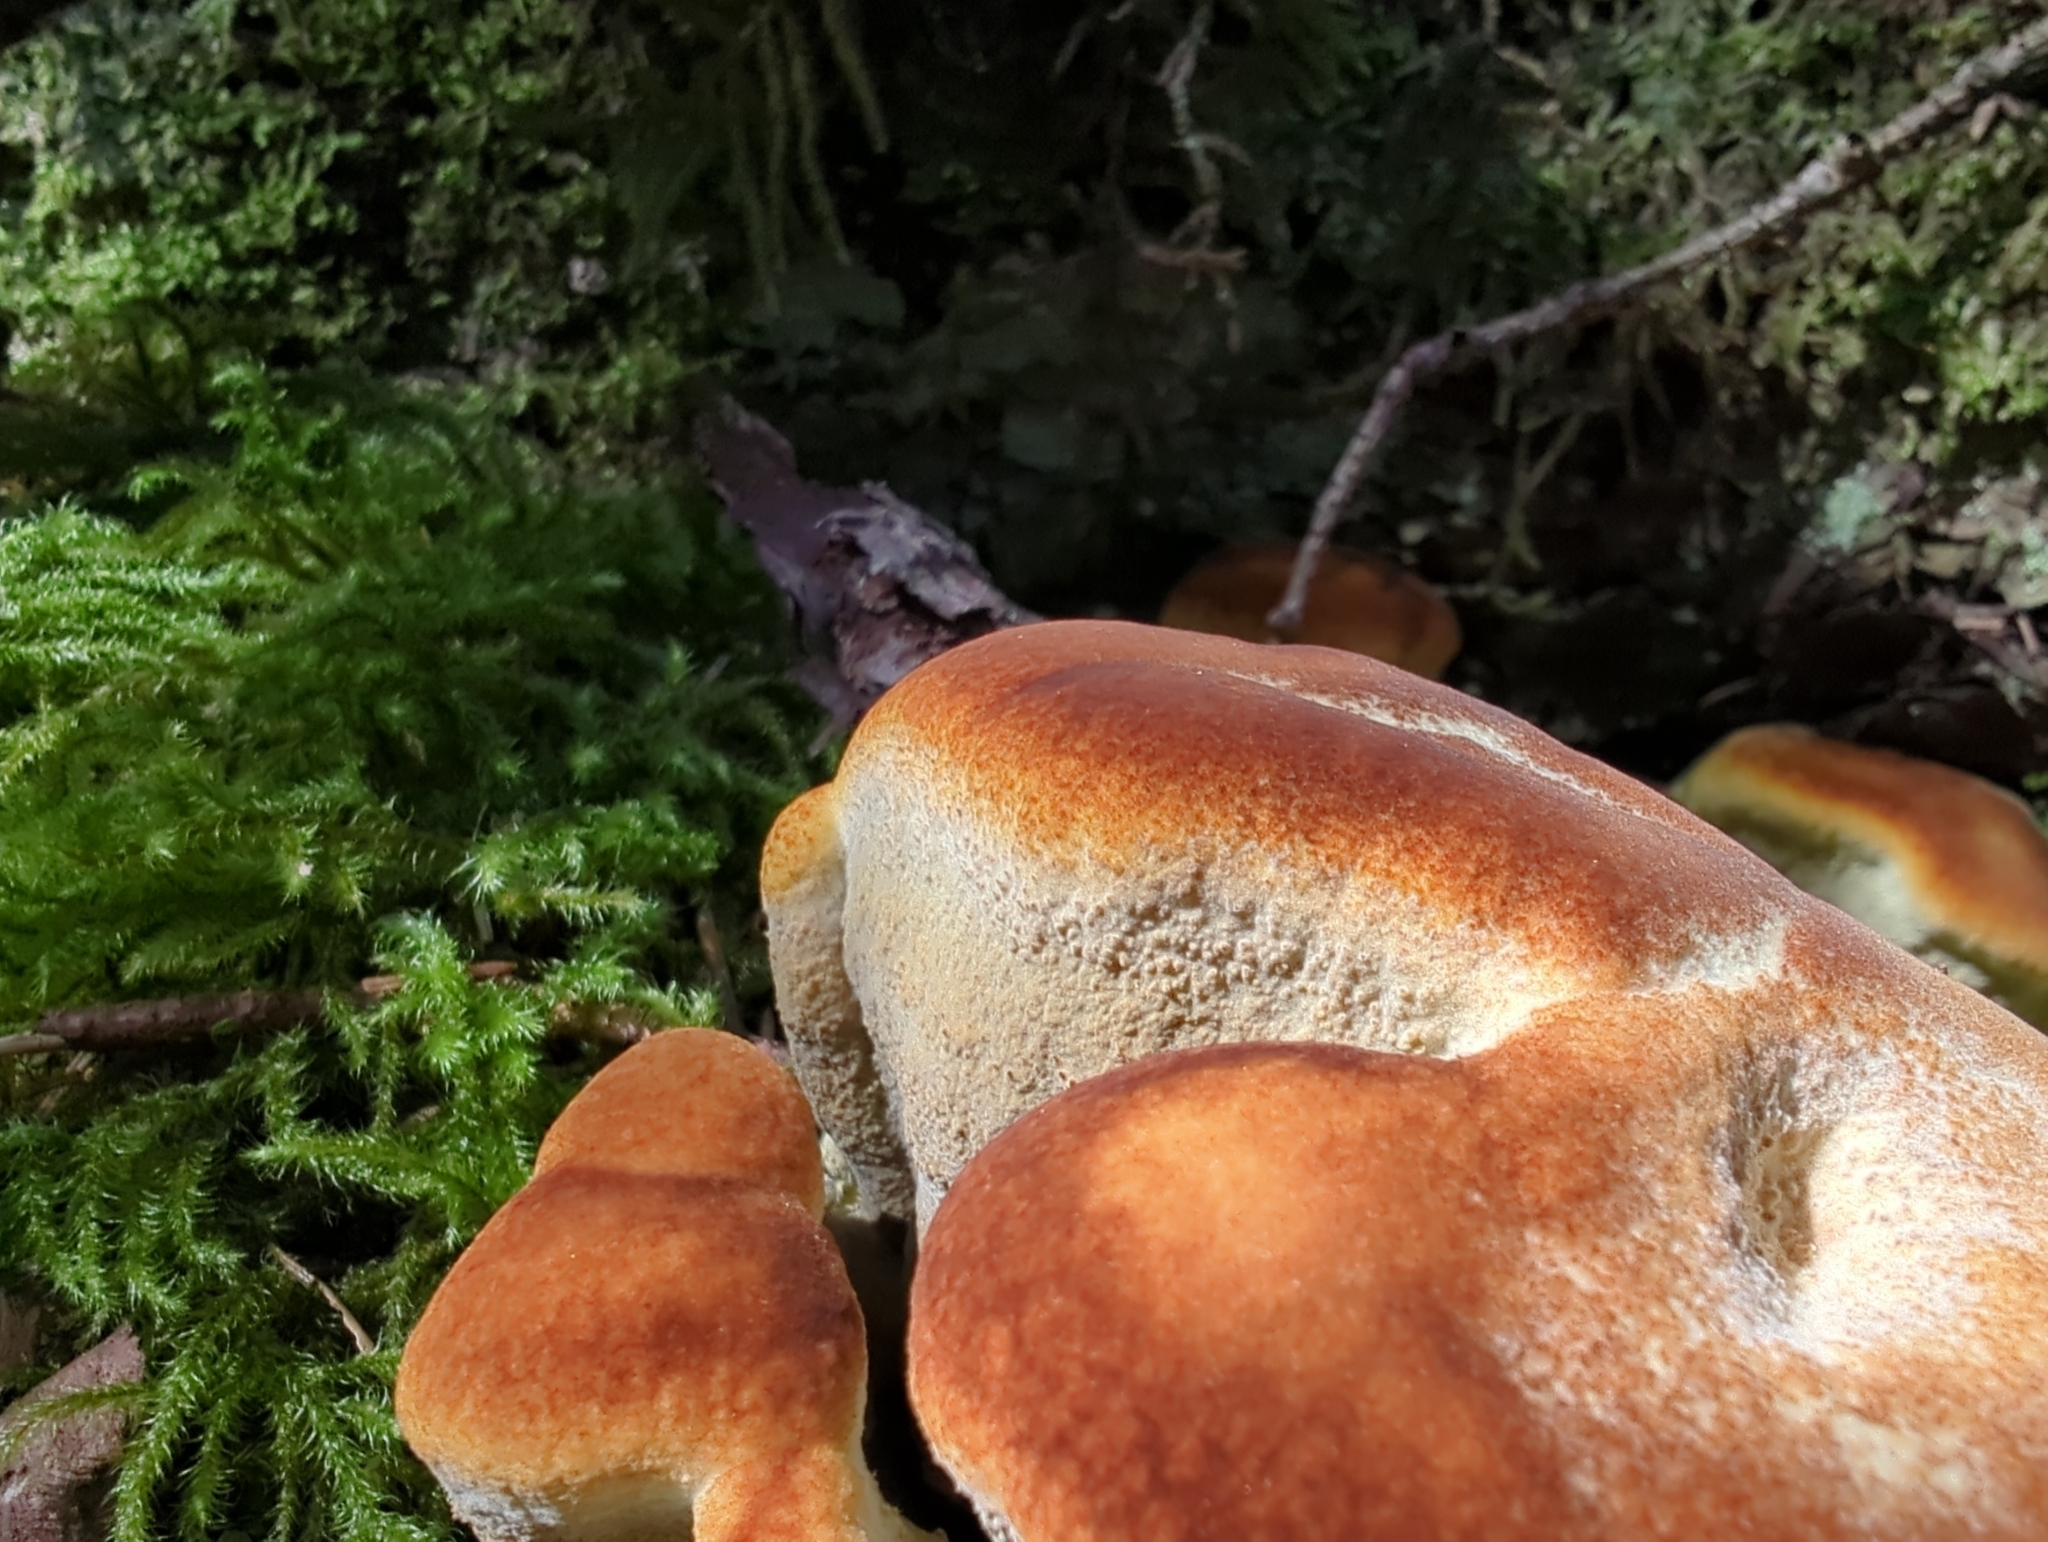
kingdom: Fungi
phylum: Basidiomycota
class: Agaricomycetes
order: Polyporales
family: Laetiporaceae
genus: Phaeolus
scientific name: Phaeolus schweinitzii
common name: Dyer's mazegill
